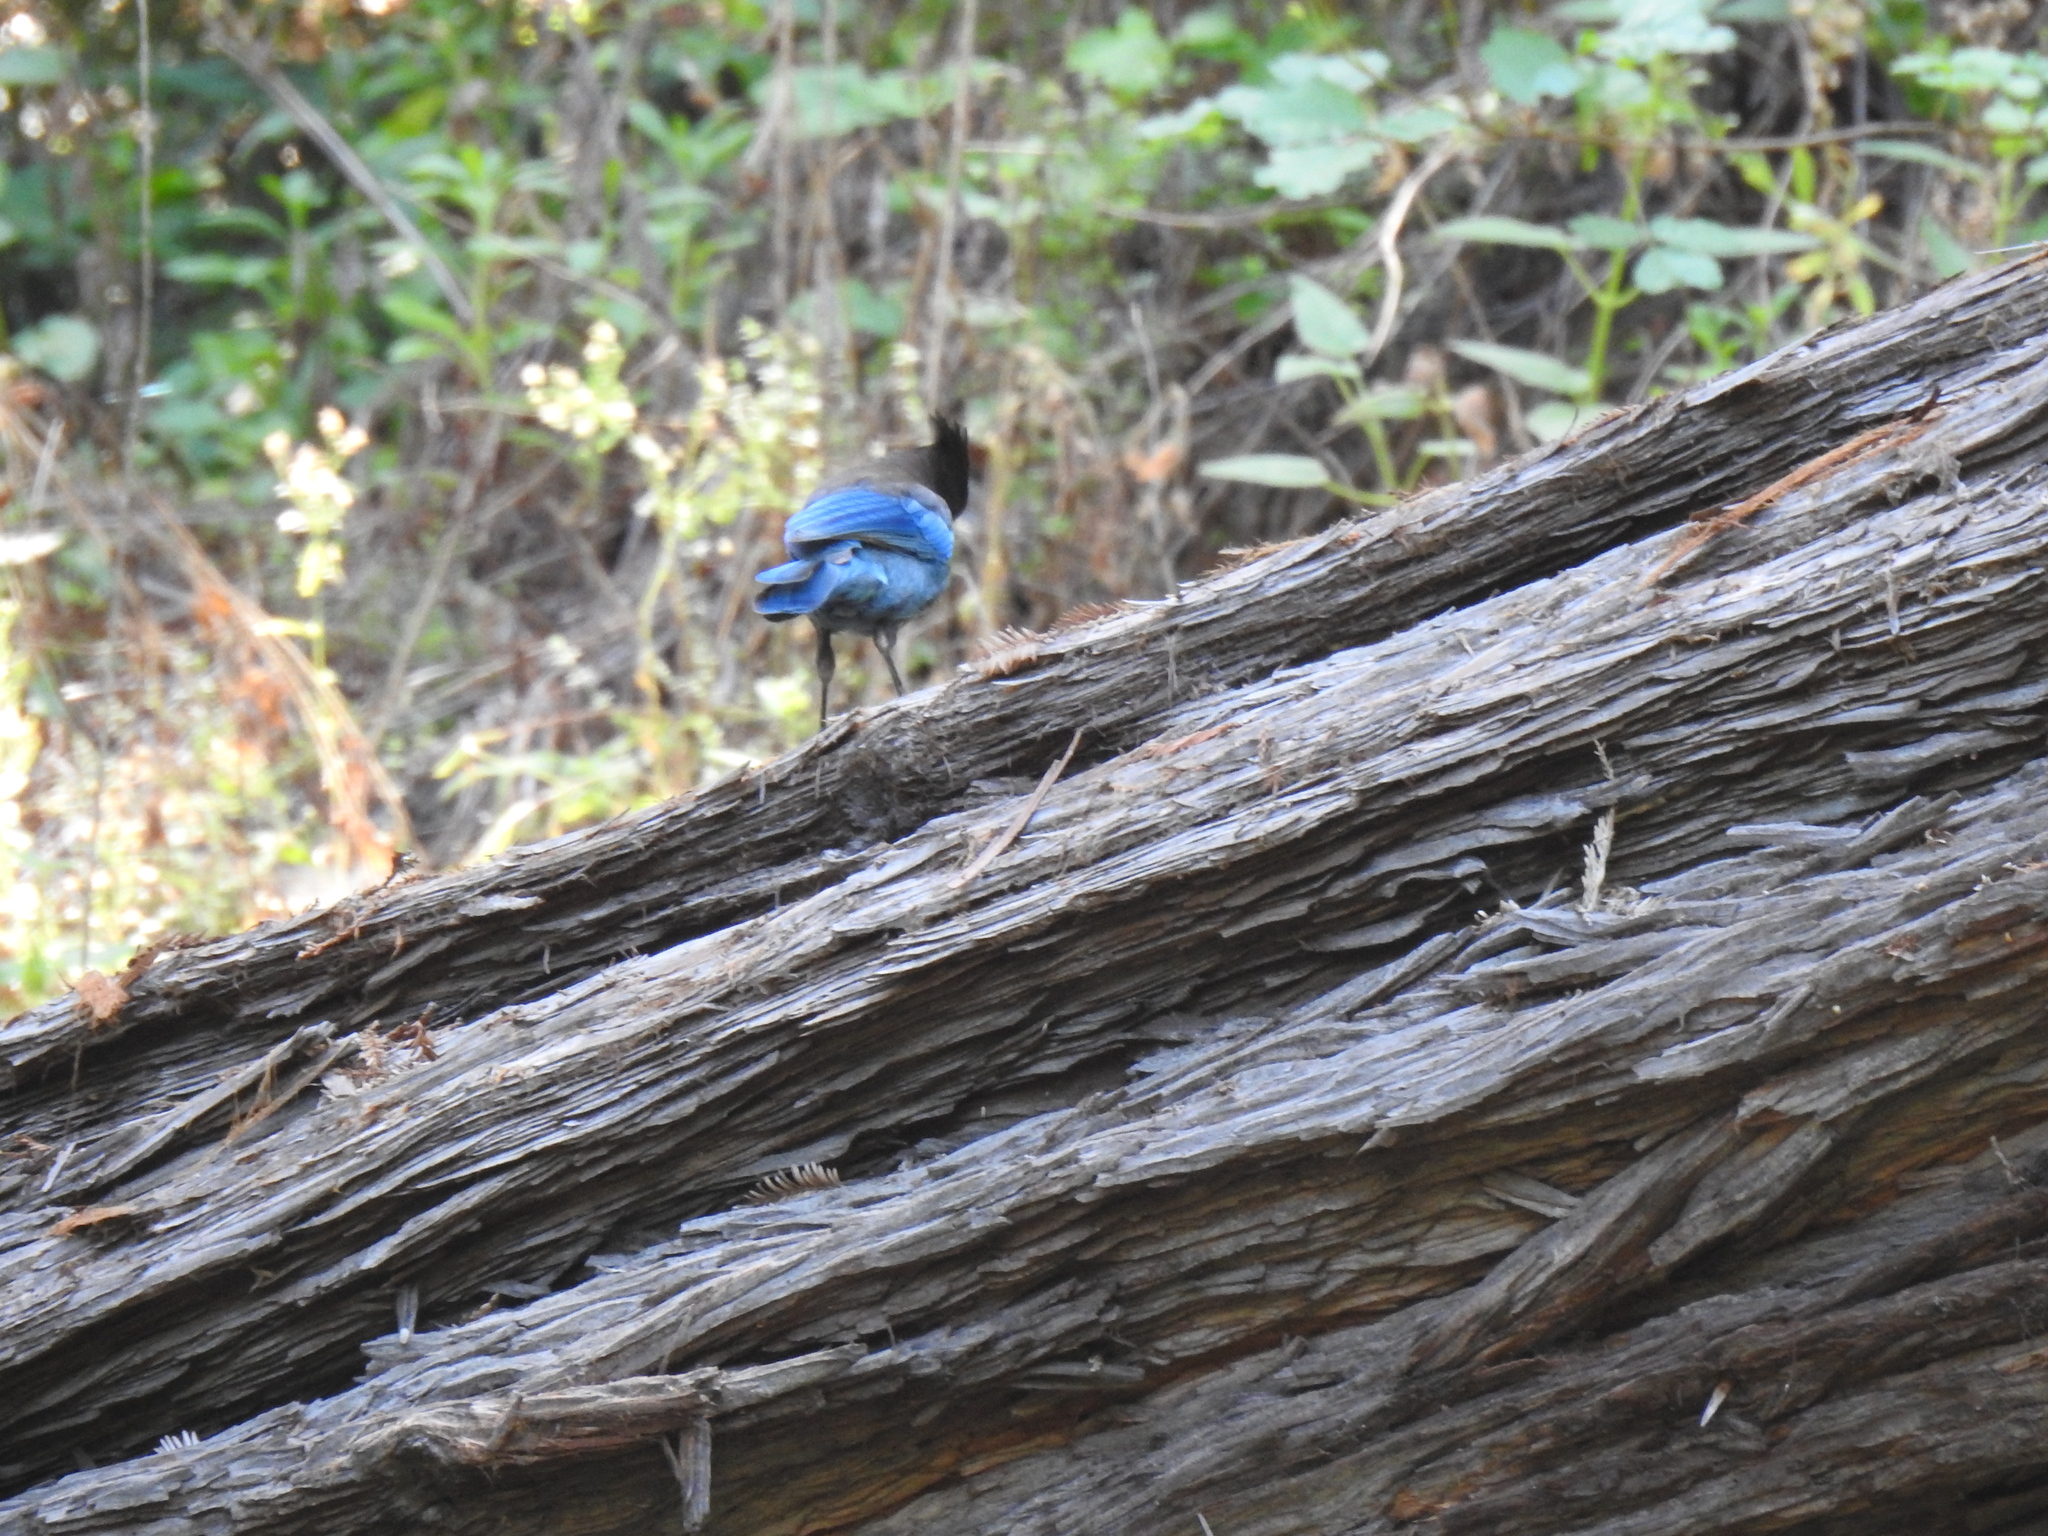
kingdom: Animalia
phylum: Chordata
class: Aves
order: Passeriformes
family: Corvidae
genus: Cyanocitta
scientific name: Cyanocitta stelleri
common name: Steller's jay
